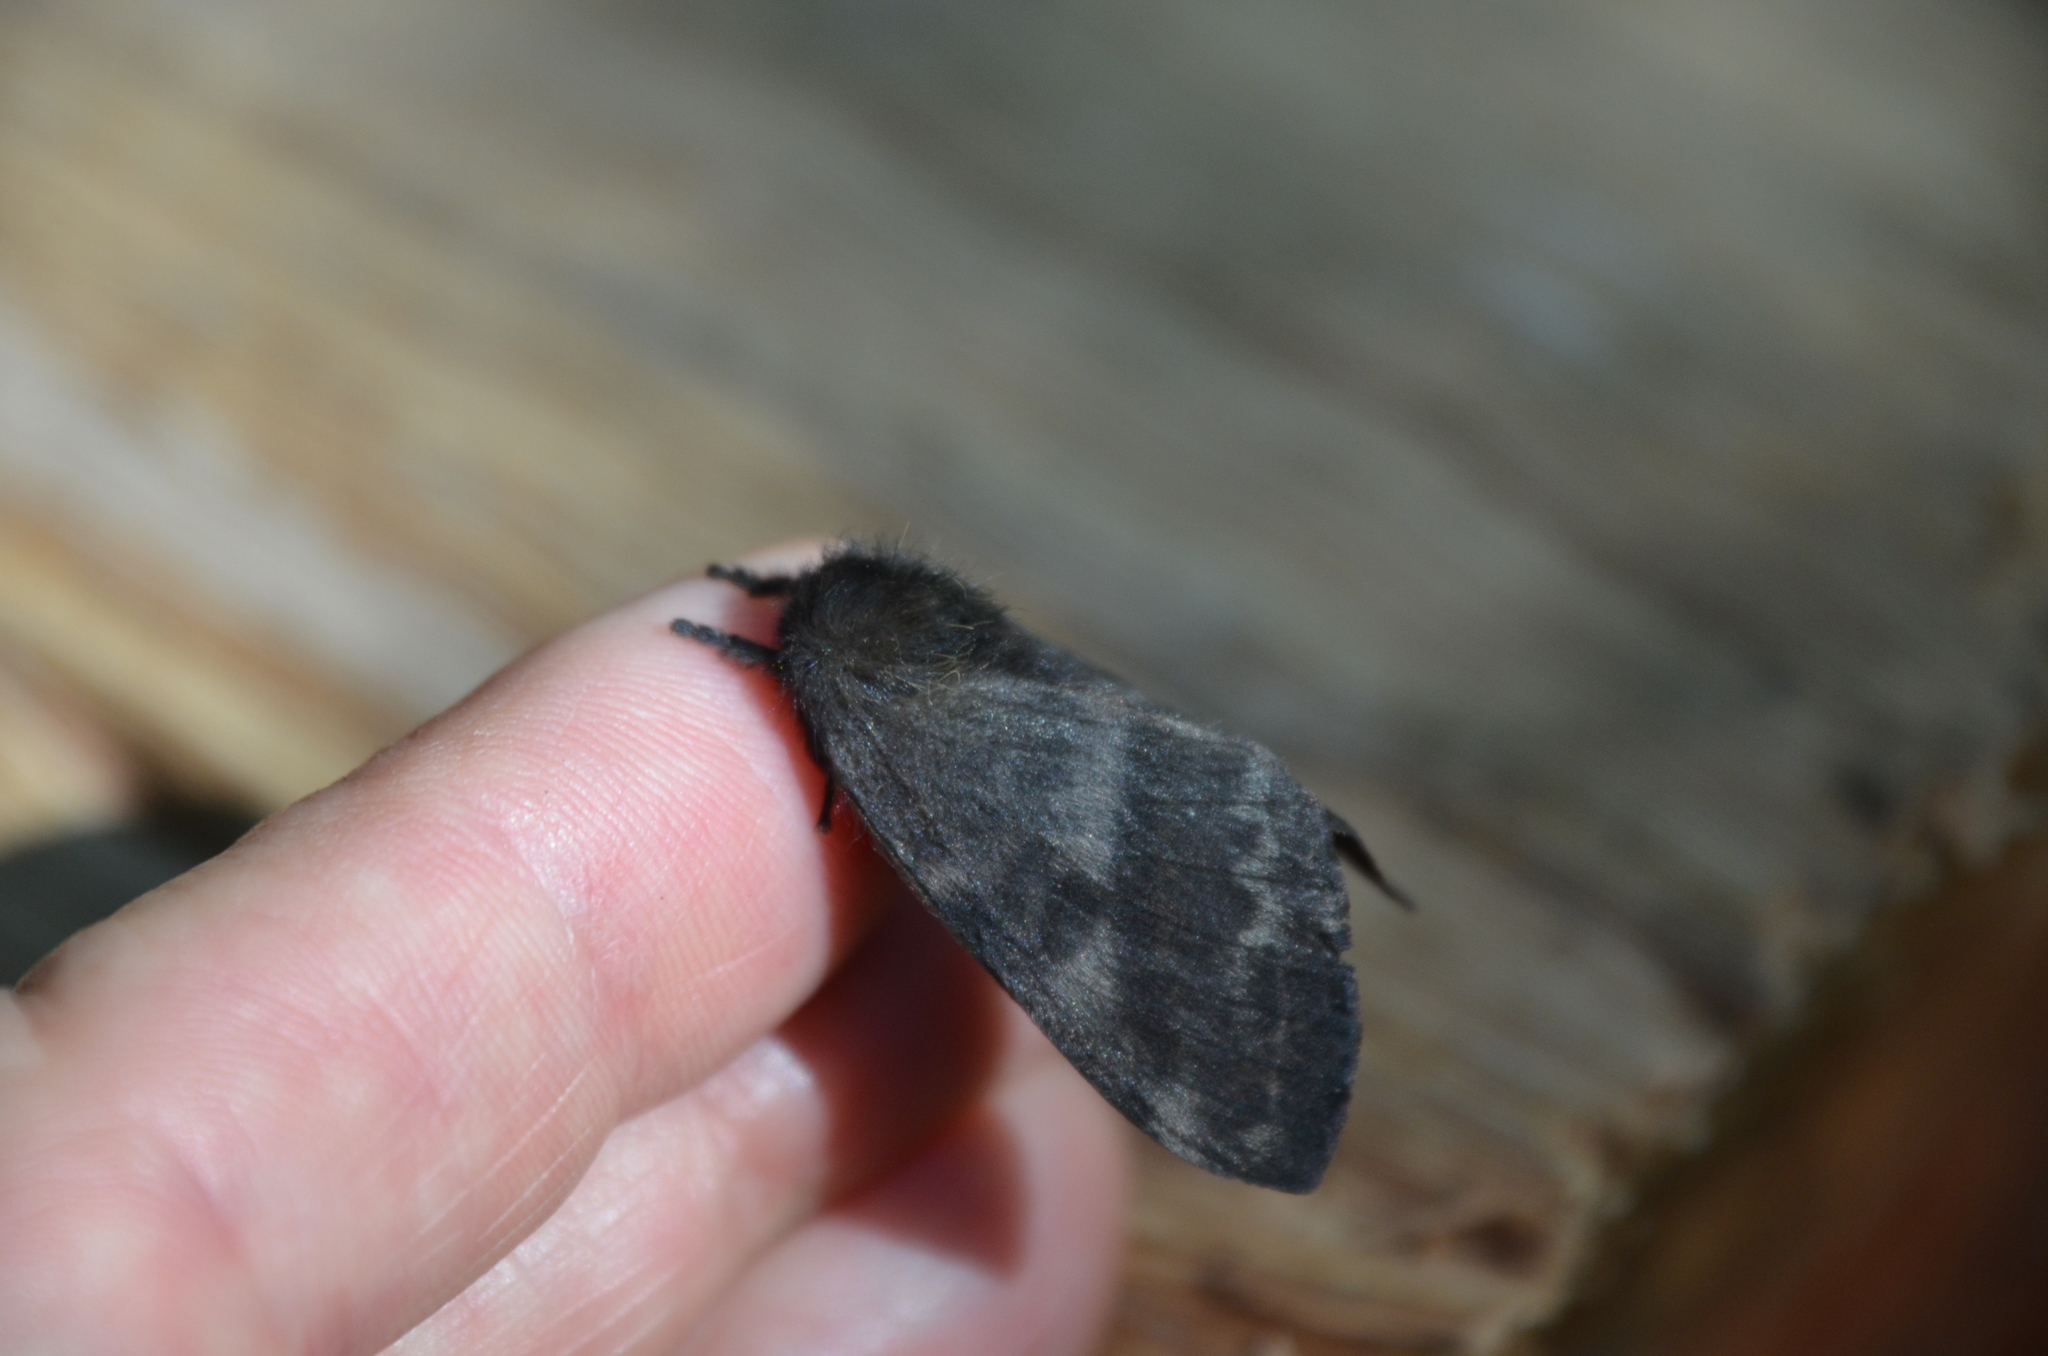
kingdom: Animalia
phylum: Arthropoda
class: Insecta
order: Lepidoptera
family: Saturniidae
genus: Hylesia
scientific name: Hylesia nigricans
